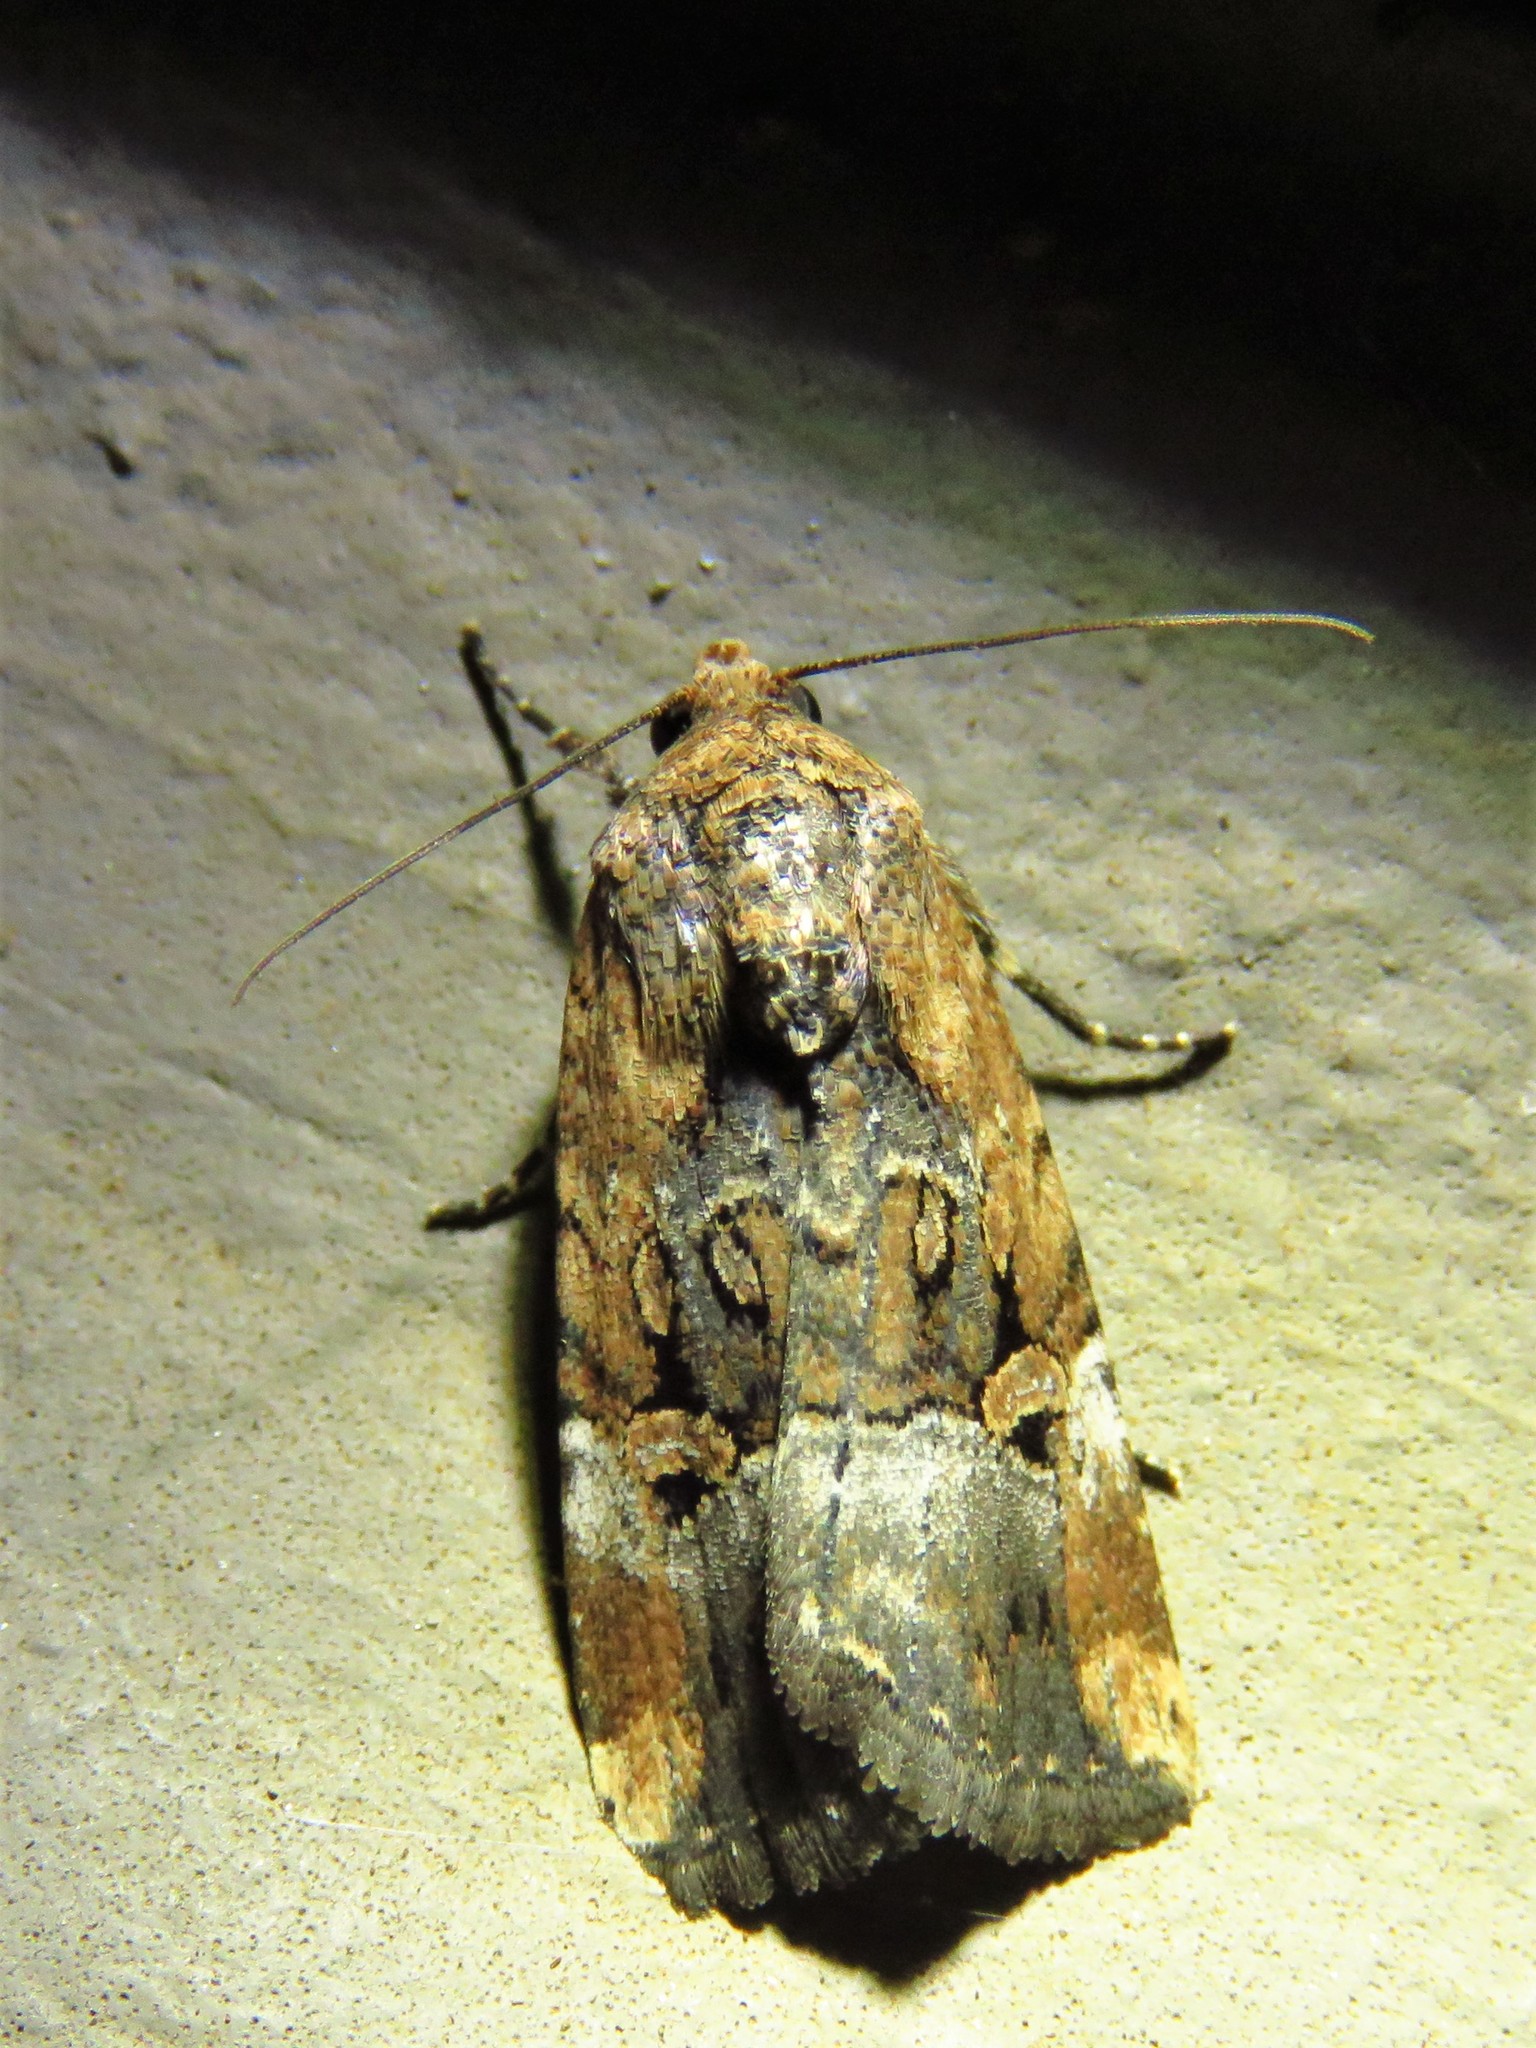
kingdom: Animalia
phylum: Arthropoda
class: Insecta
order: Lepidoptera
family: Noctuidae
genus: Elaphria
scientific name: Elaphria chalcedonia
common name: Chalcedony midget
